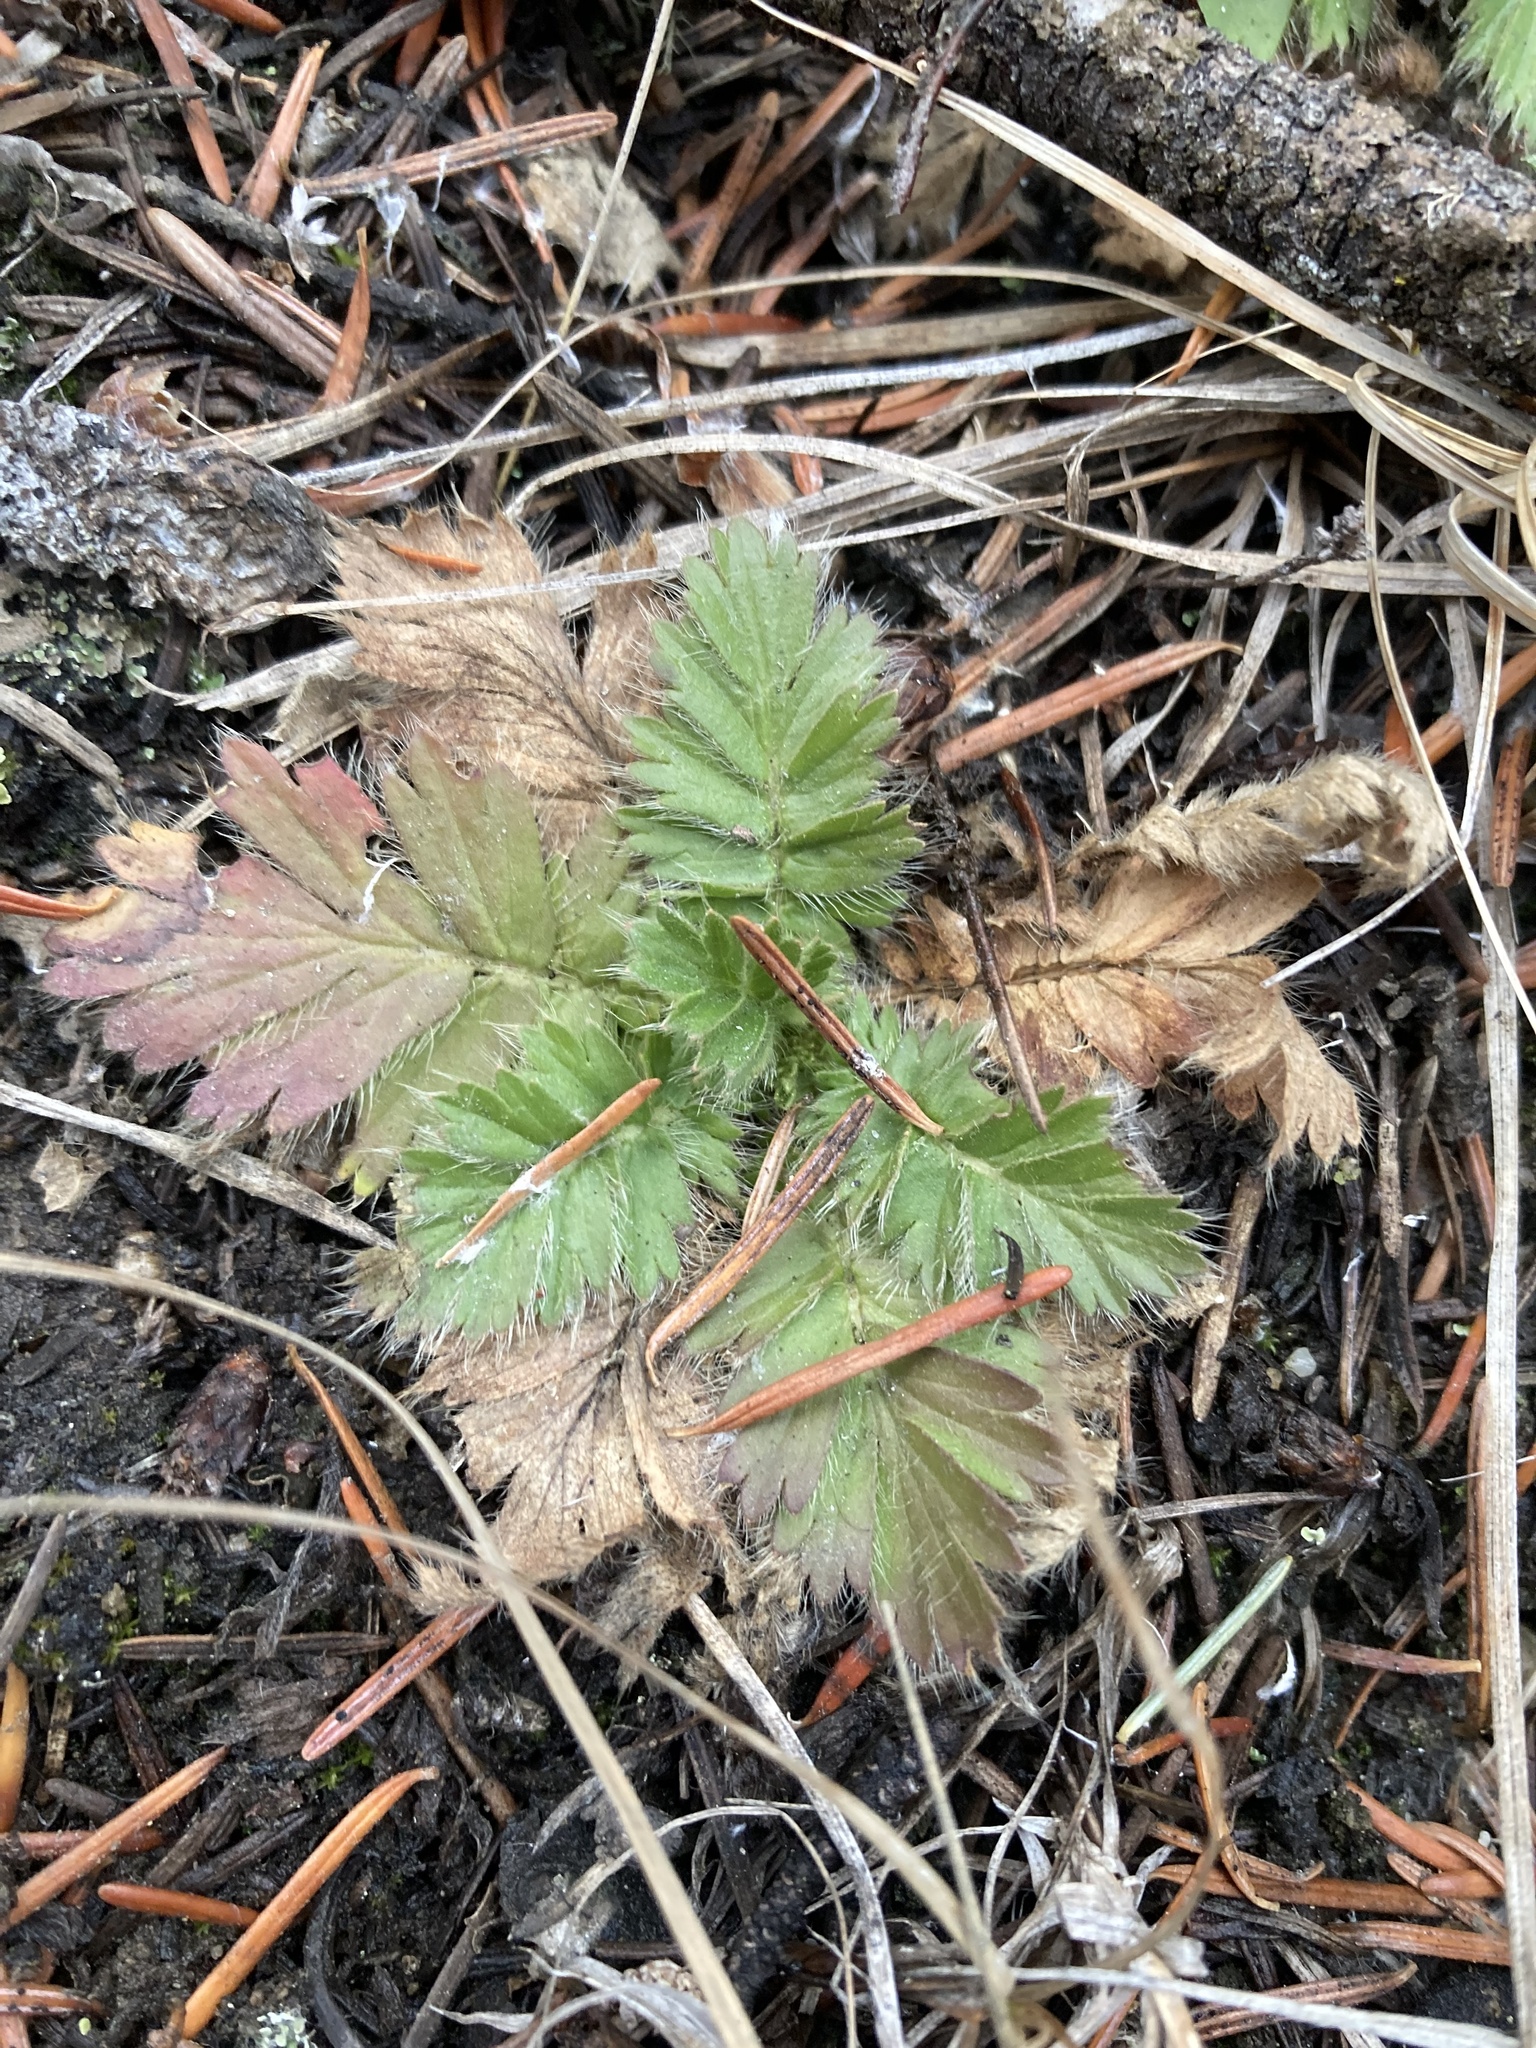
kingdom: Plantae
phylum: Tracheophyta
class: Magnoliopsida
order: Rosales
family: Rosaceae
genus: Geum
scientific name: Geum triflorum
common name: Old man's whiskers
